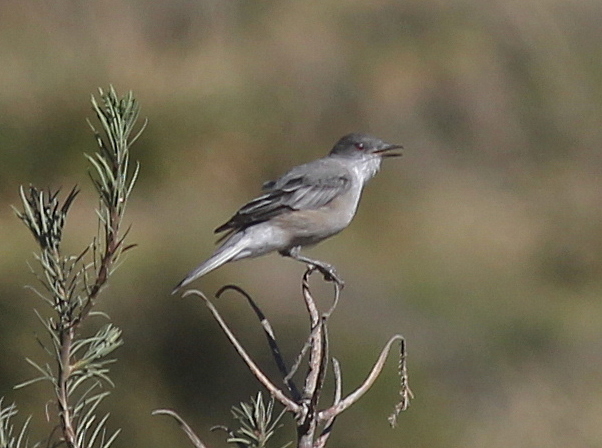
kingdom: Animalia
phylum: Chordata
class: Aves
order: Passeriformes
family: Tyrannidae
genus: Xolmis
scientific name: Xolmis pyrope
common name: Fire-eyed diucon
